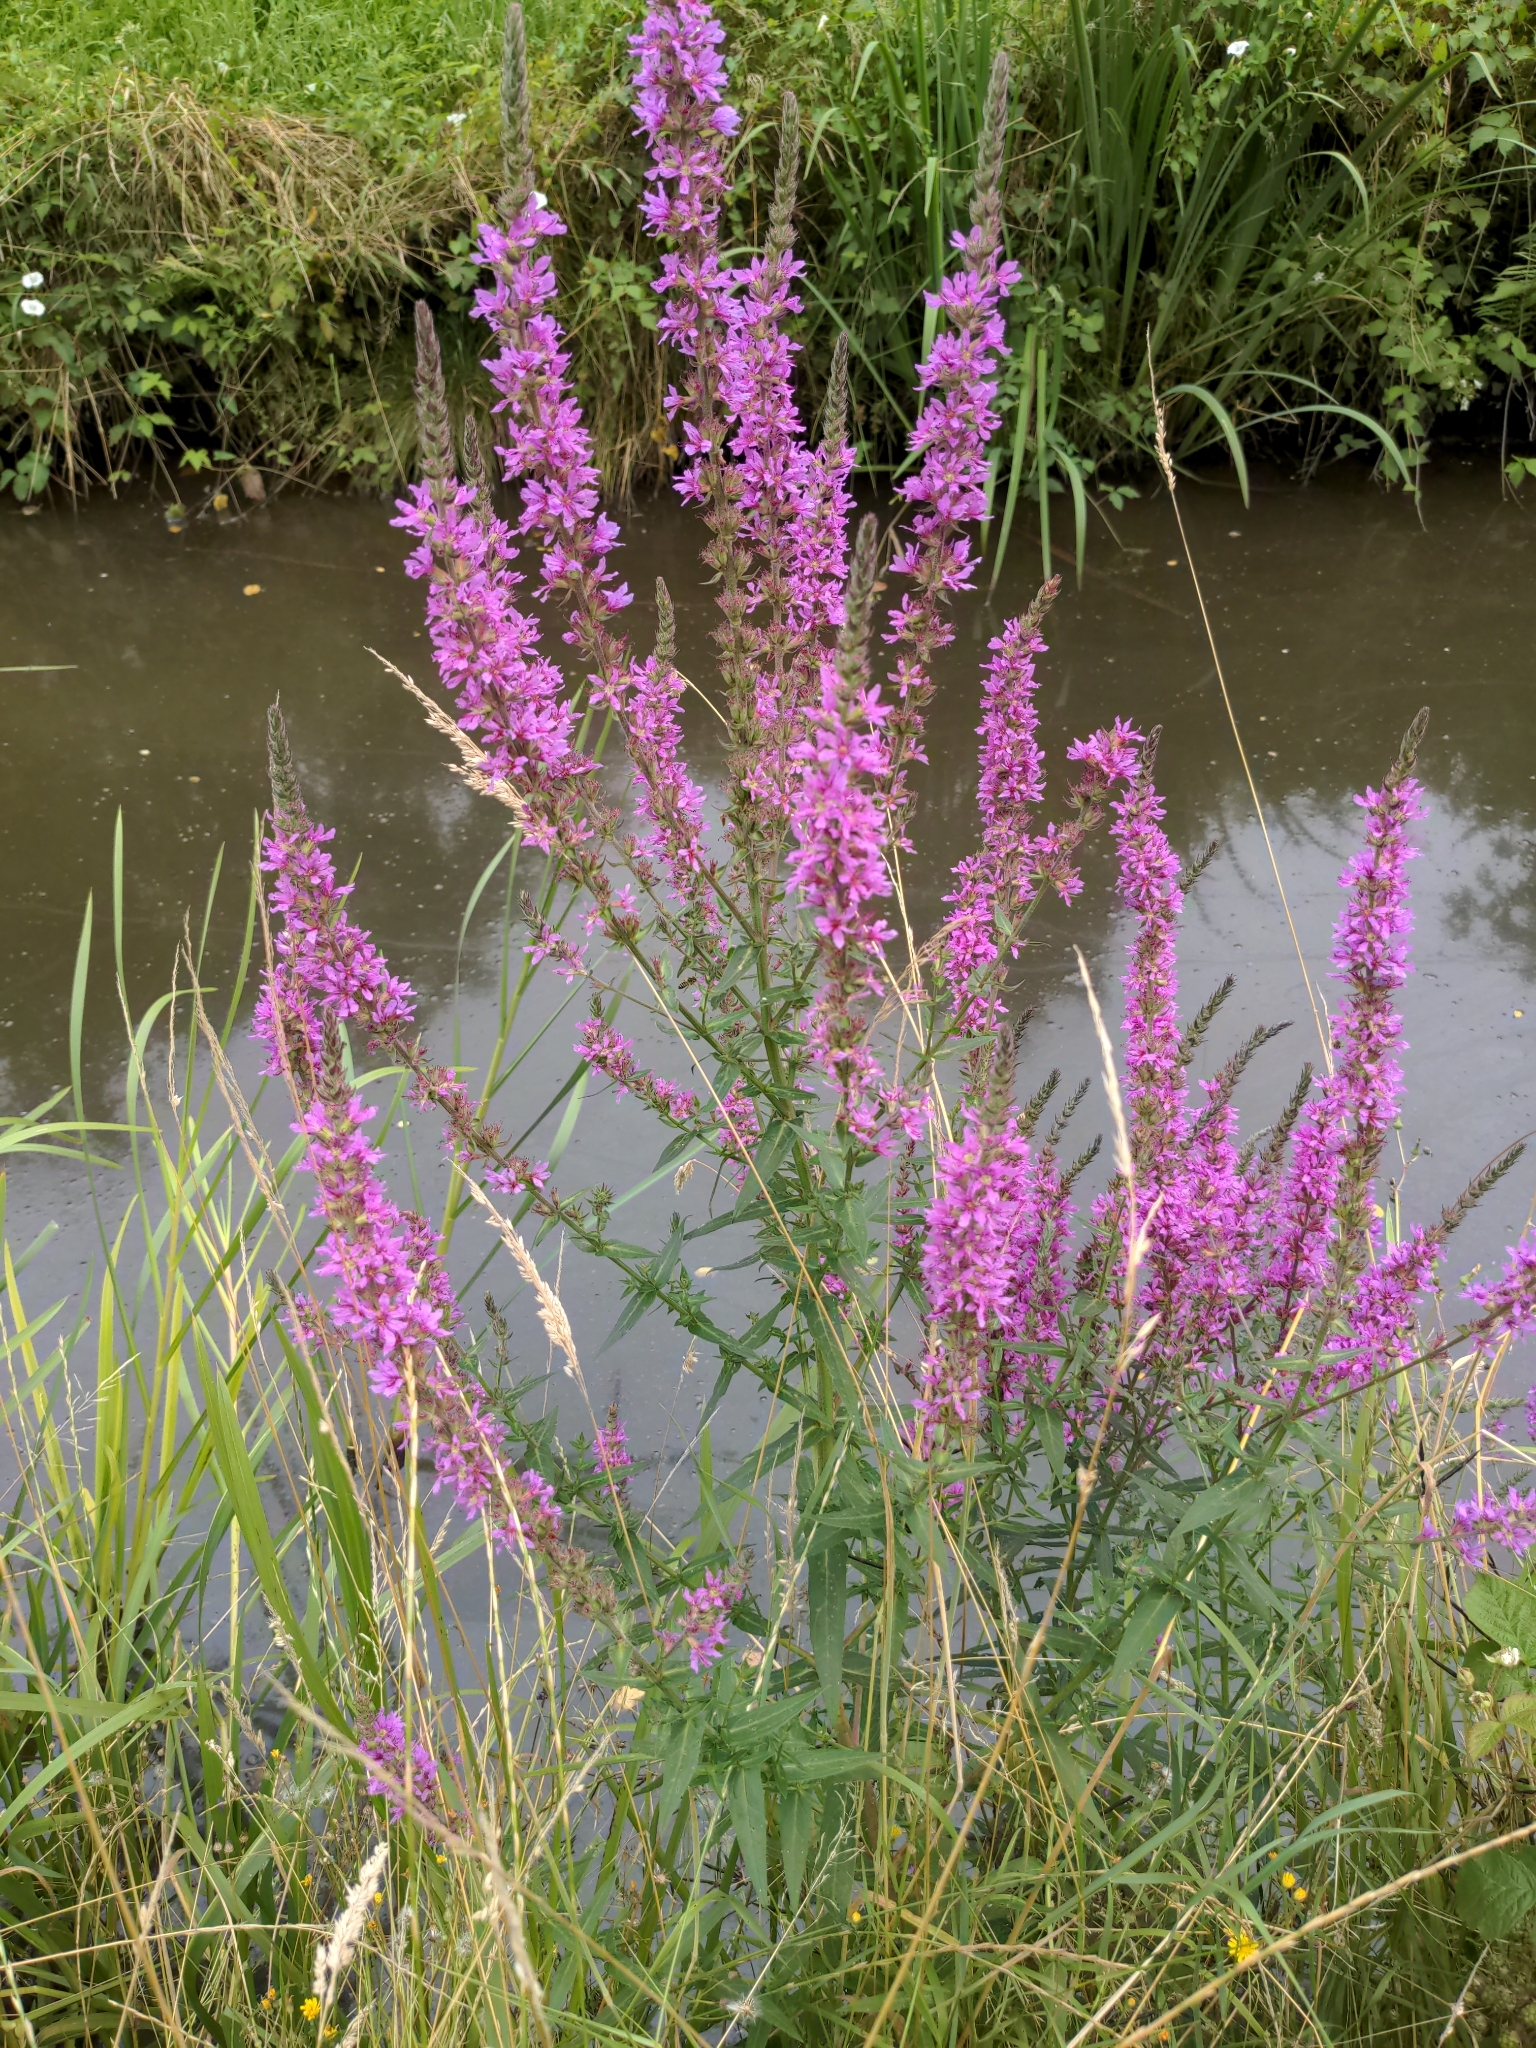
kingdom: Plantae
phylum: Tracheophyta
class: Magnoliopsida
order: Myrtales
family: Lythraceae
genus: Lythrum
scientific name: Lythrum salicaria
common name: Purple loosestrife
